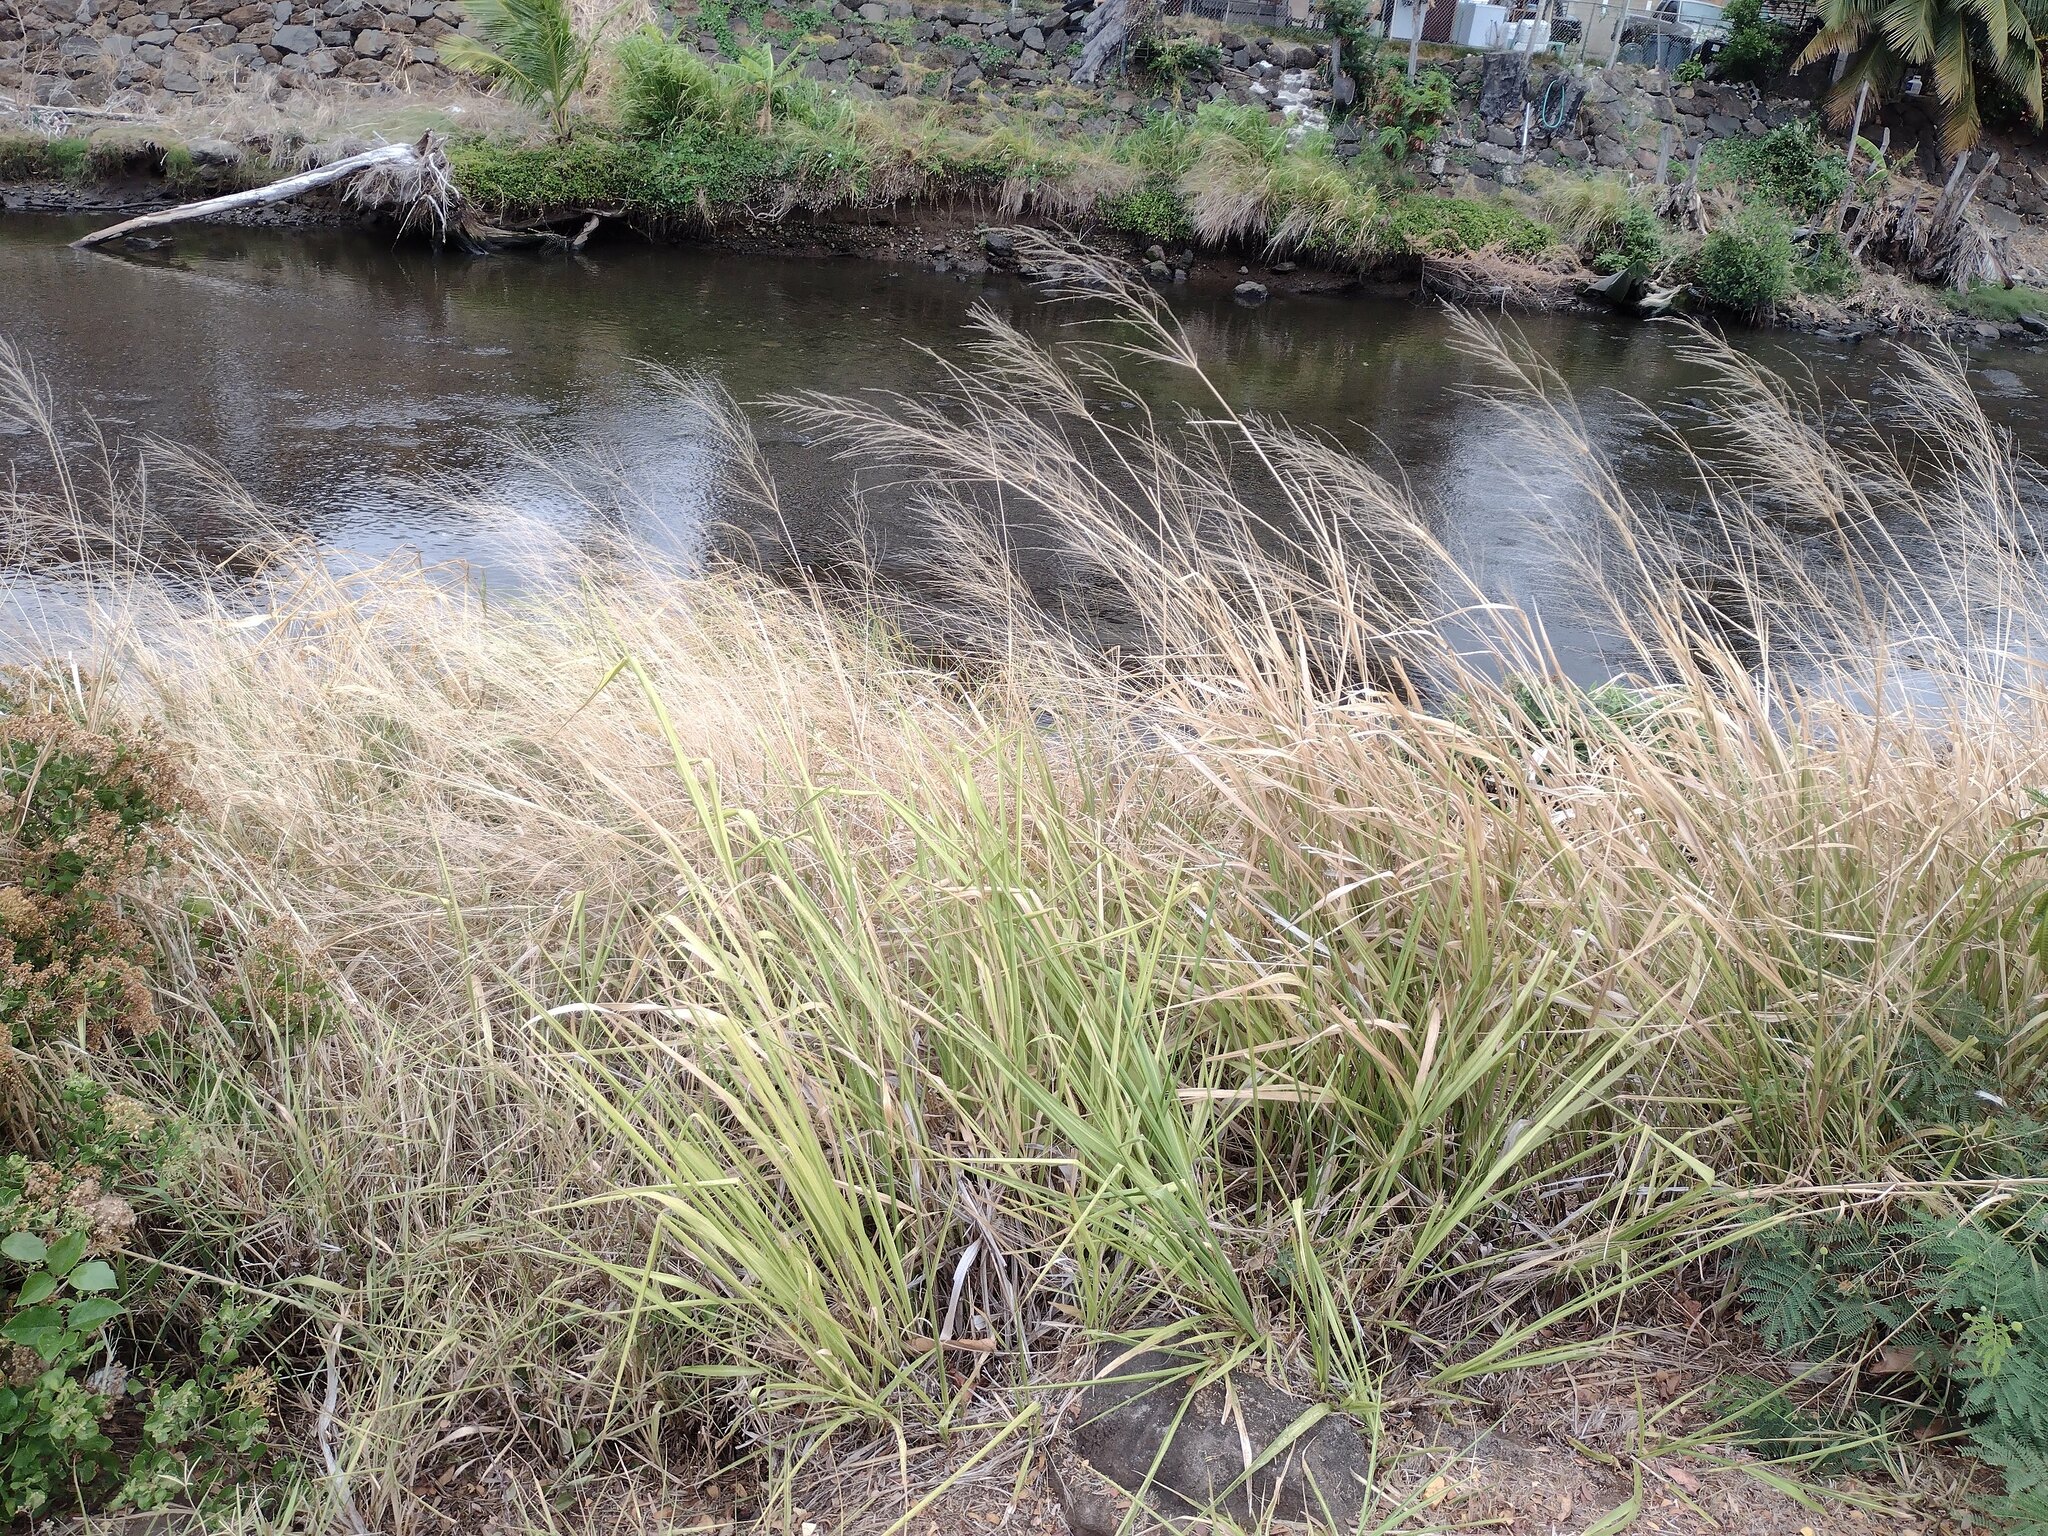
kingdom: Plantae
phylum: Tracheophyta
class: Liliopsida
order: Poales
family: Poaceae
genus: Megathyrsus
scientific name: Megathyrsus maximus
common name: Guineagrass
